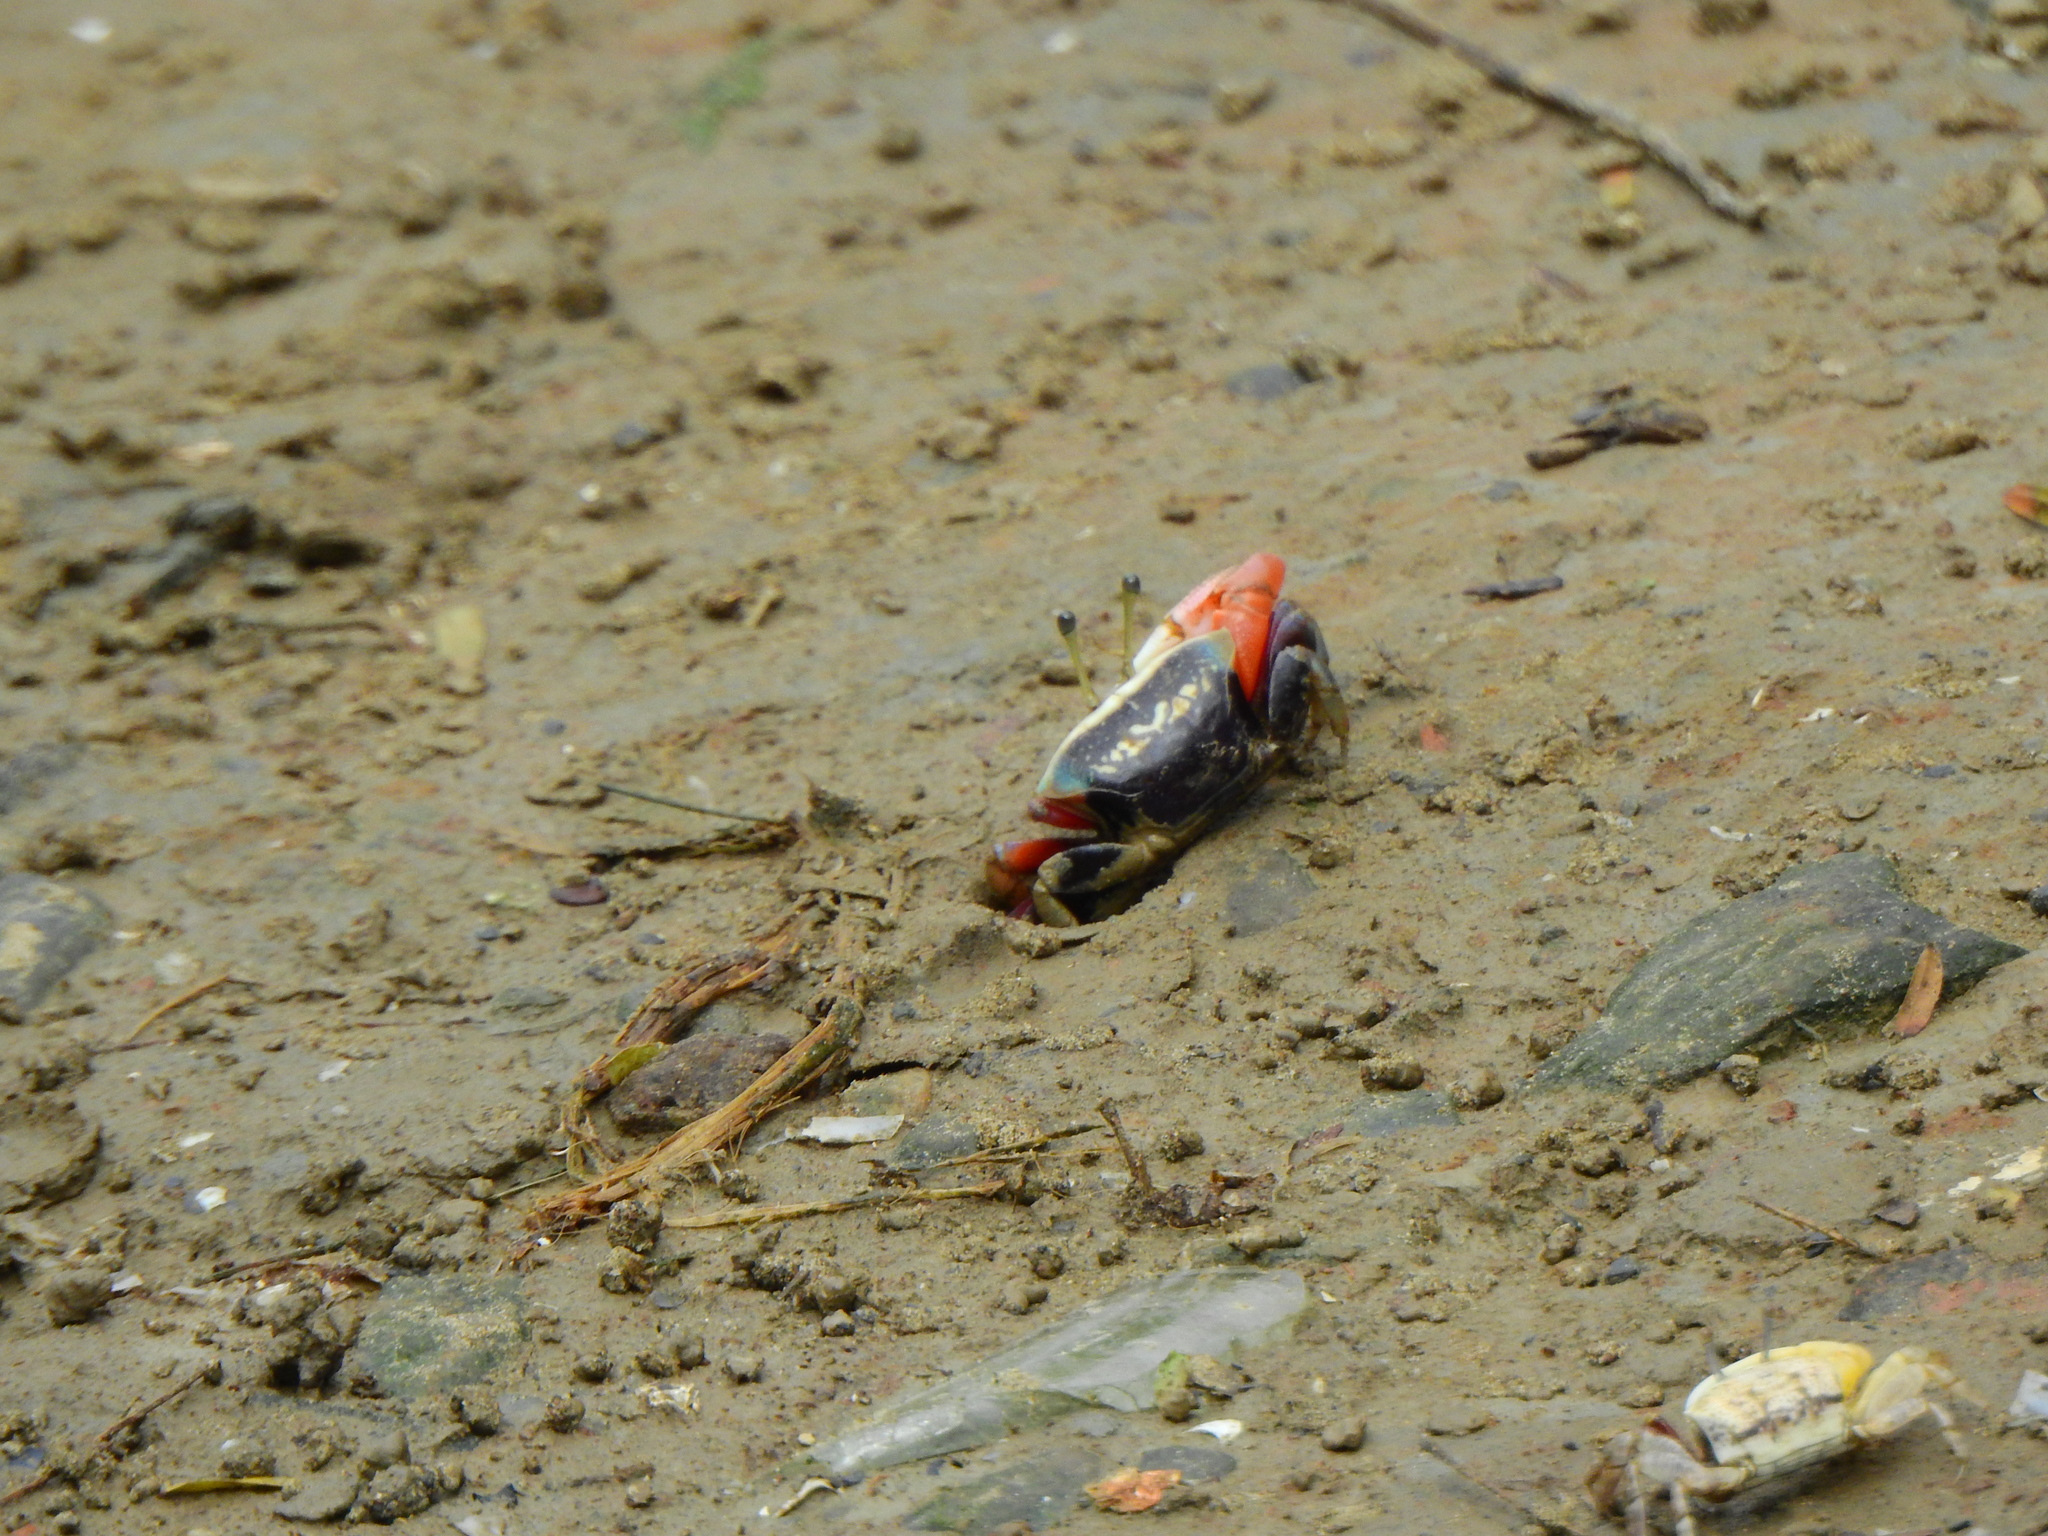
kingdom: Animalia
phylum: Arthropoda
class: Malacostraca
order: Decapoda
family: Ocypodidae
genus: Tubuca
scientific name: Tubuca arcuata
